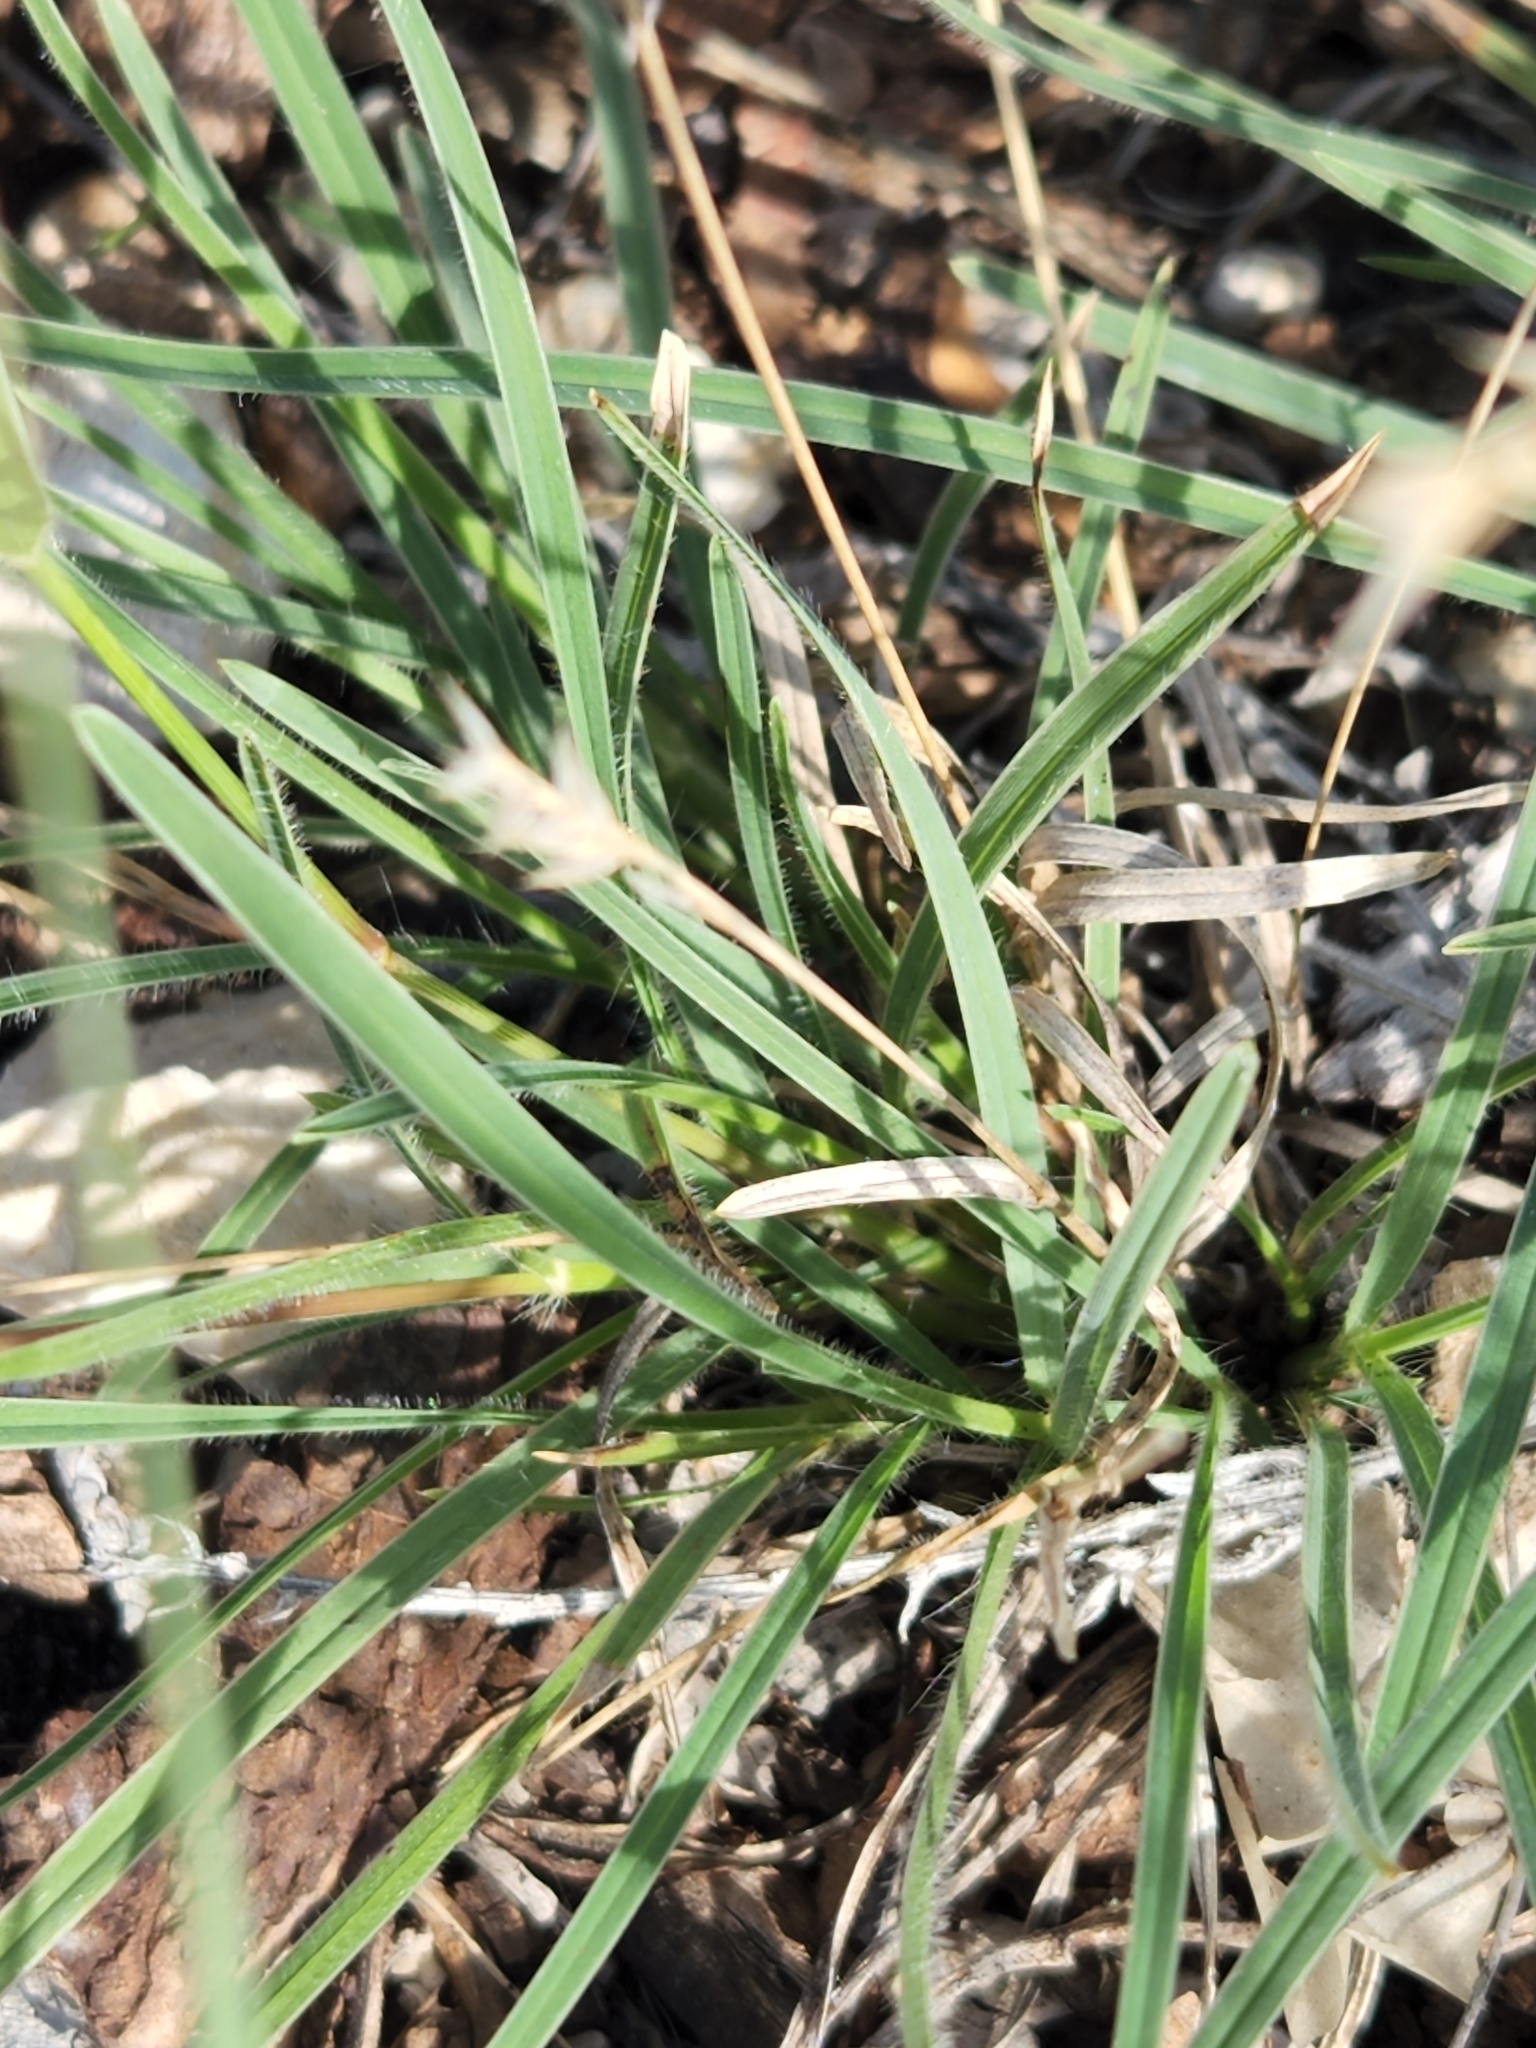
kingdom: Plantae
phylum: Tracheophyta
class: Liliopsida
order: Poales
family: Poaceae
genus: Erioneuron
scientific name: Erioneuron pilosum
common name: Hairy woolly grass
